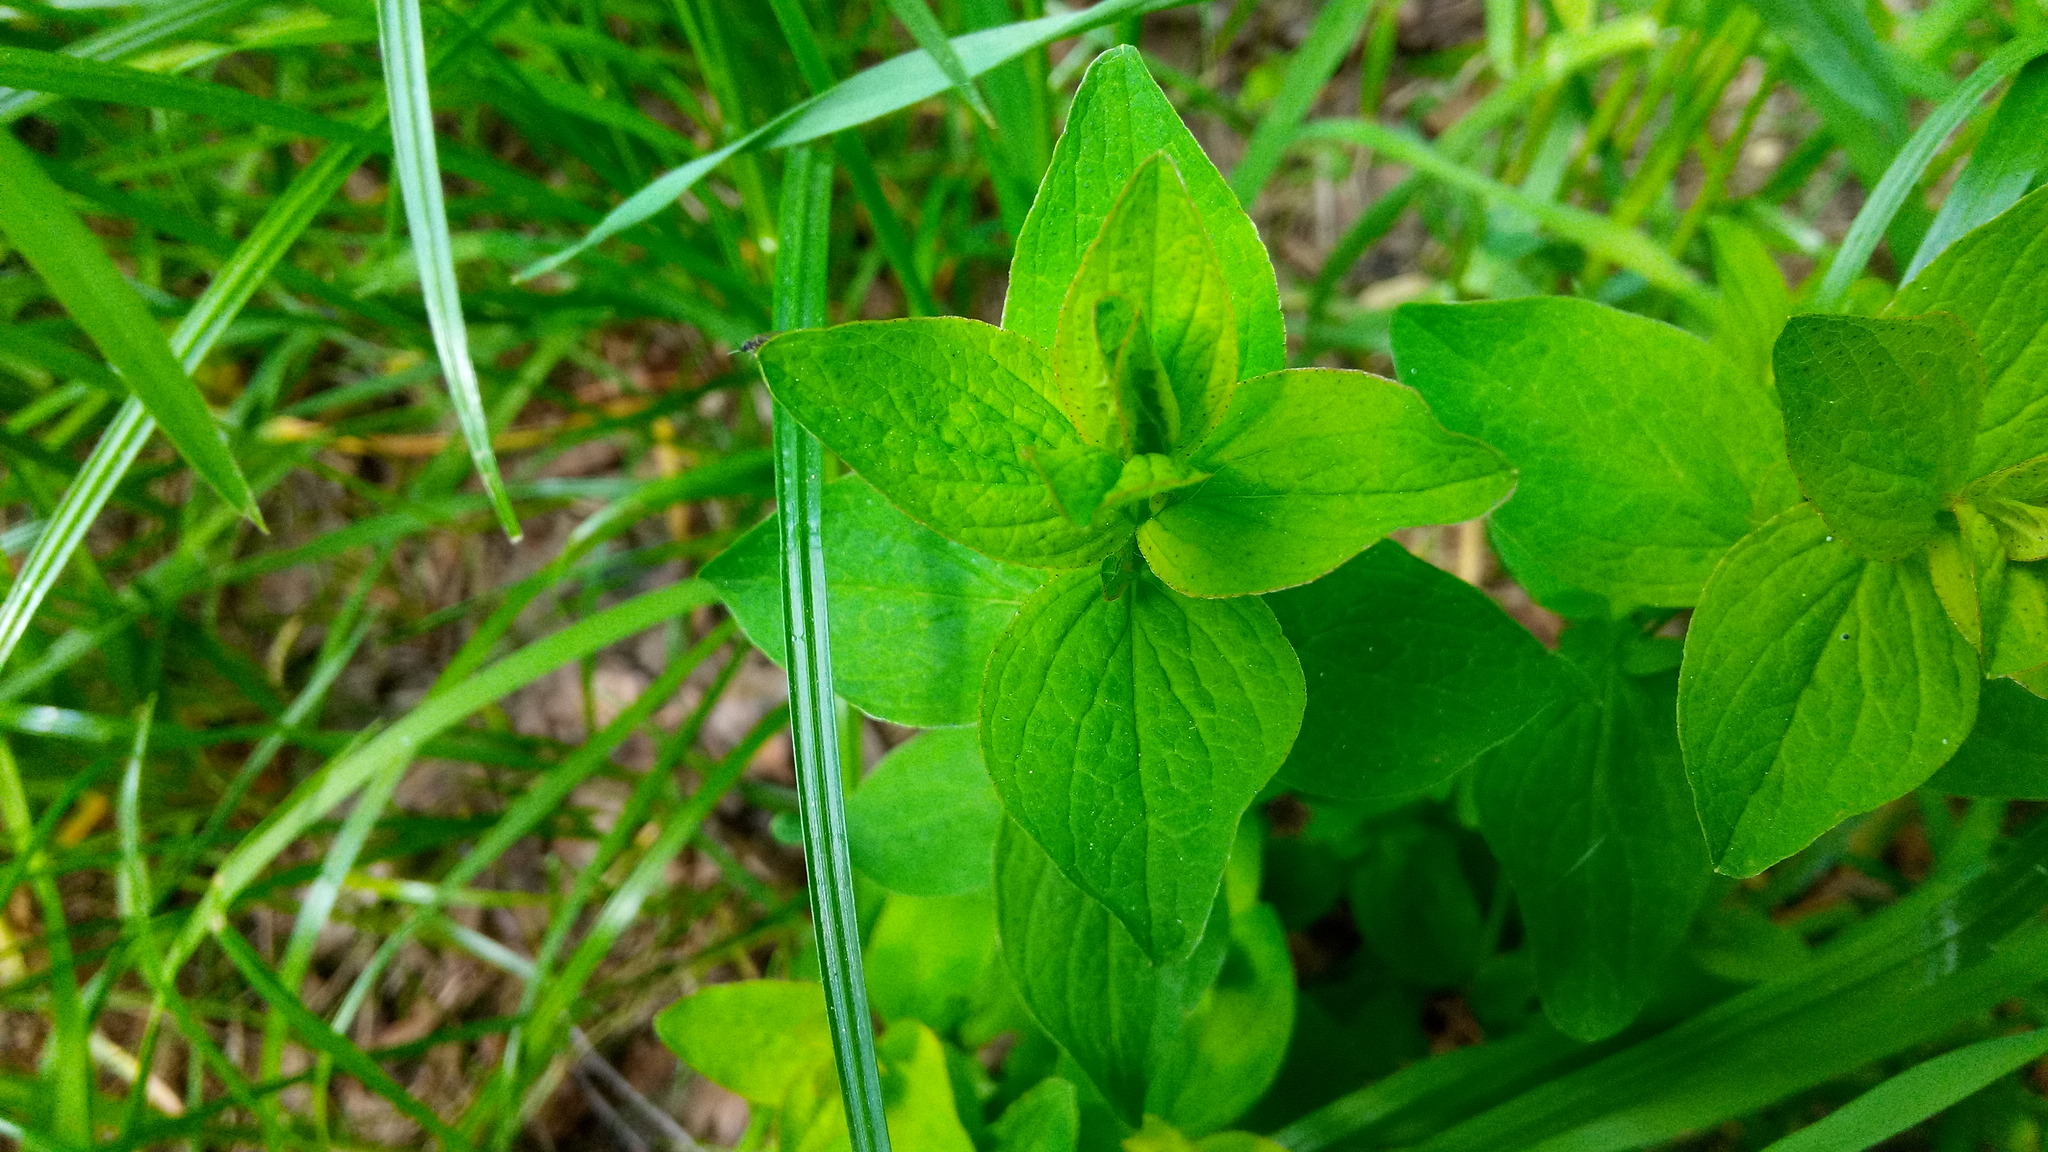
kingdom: Plantae
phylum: Tracheophyta
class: Magnoliopsida
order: Malpighiales
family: Hypericaceae
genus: Hypericum
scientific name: Hypericum maculatum
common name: Imperforate st. john's-wort
